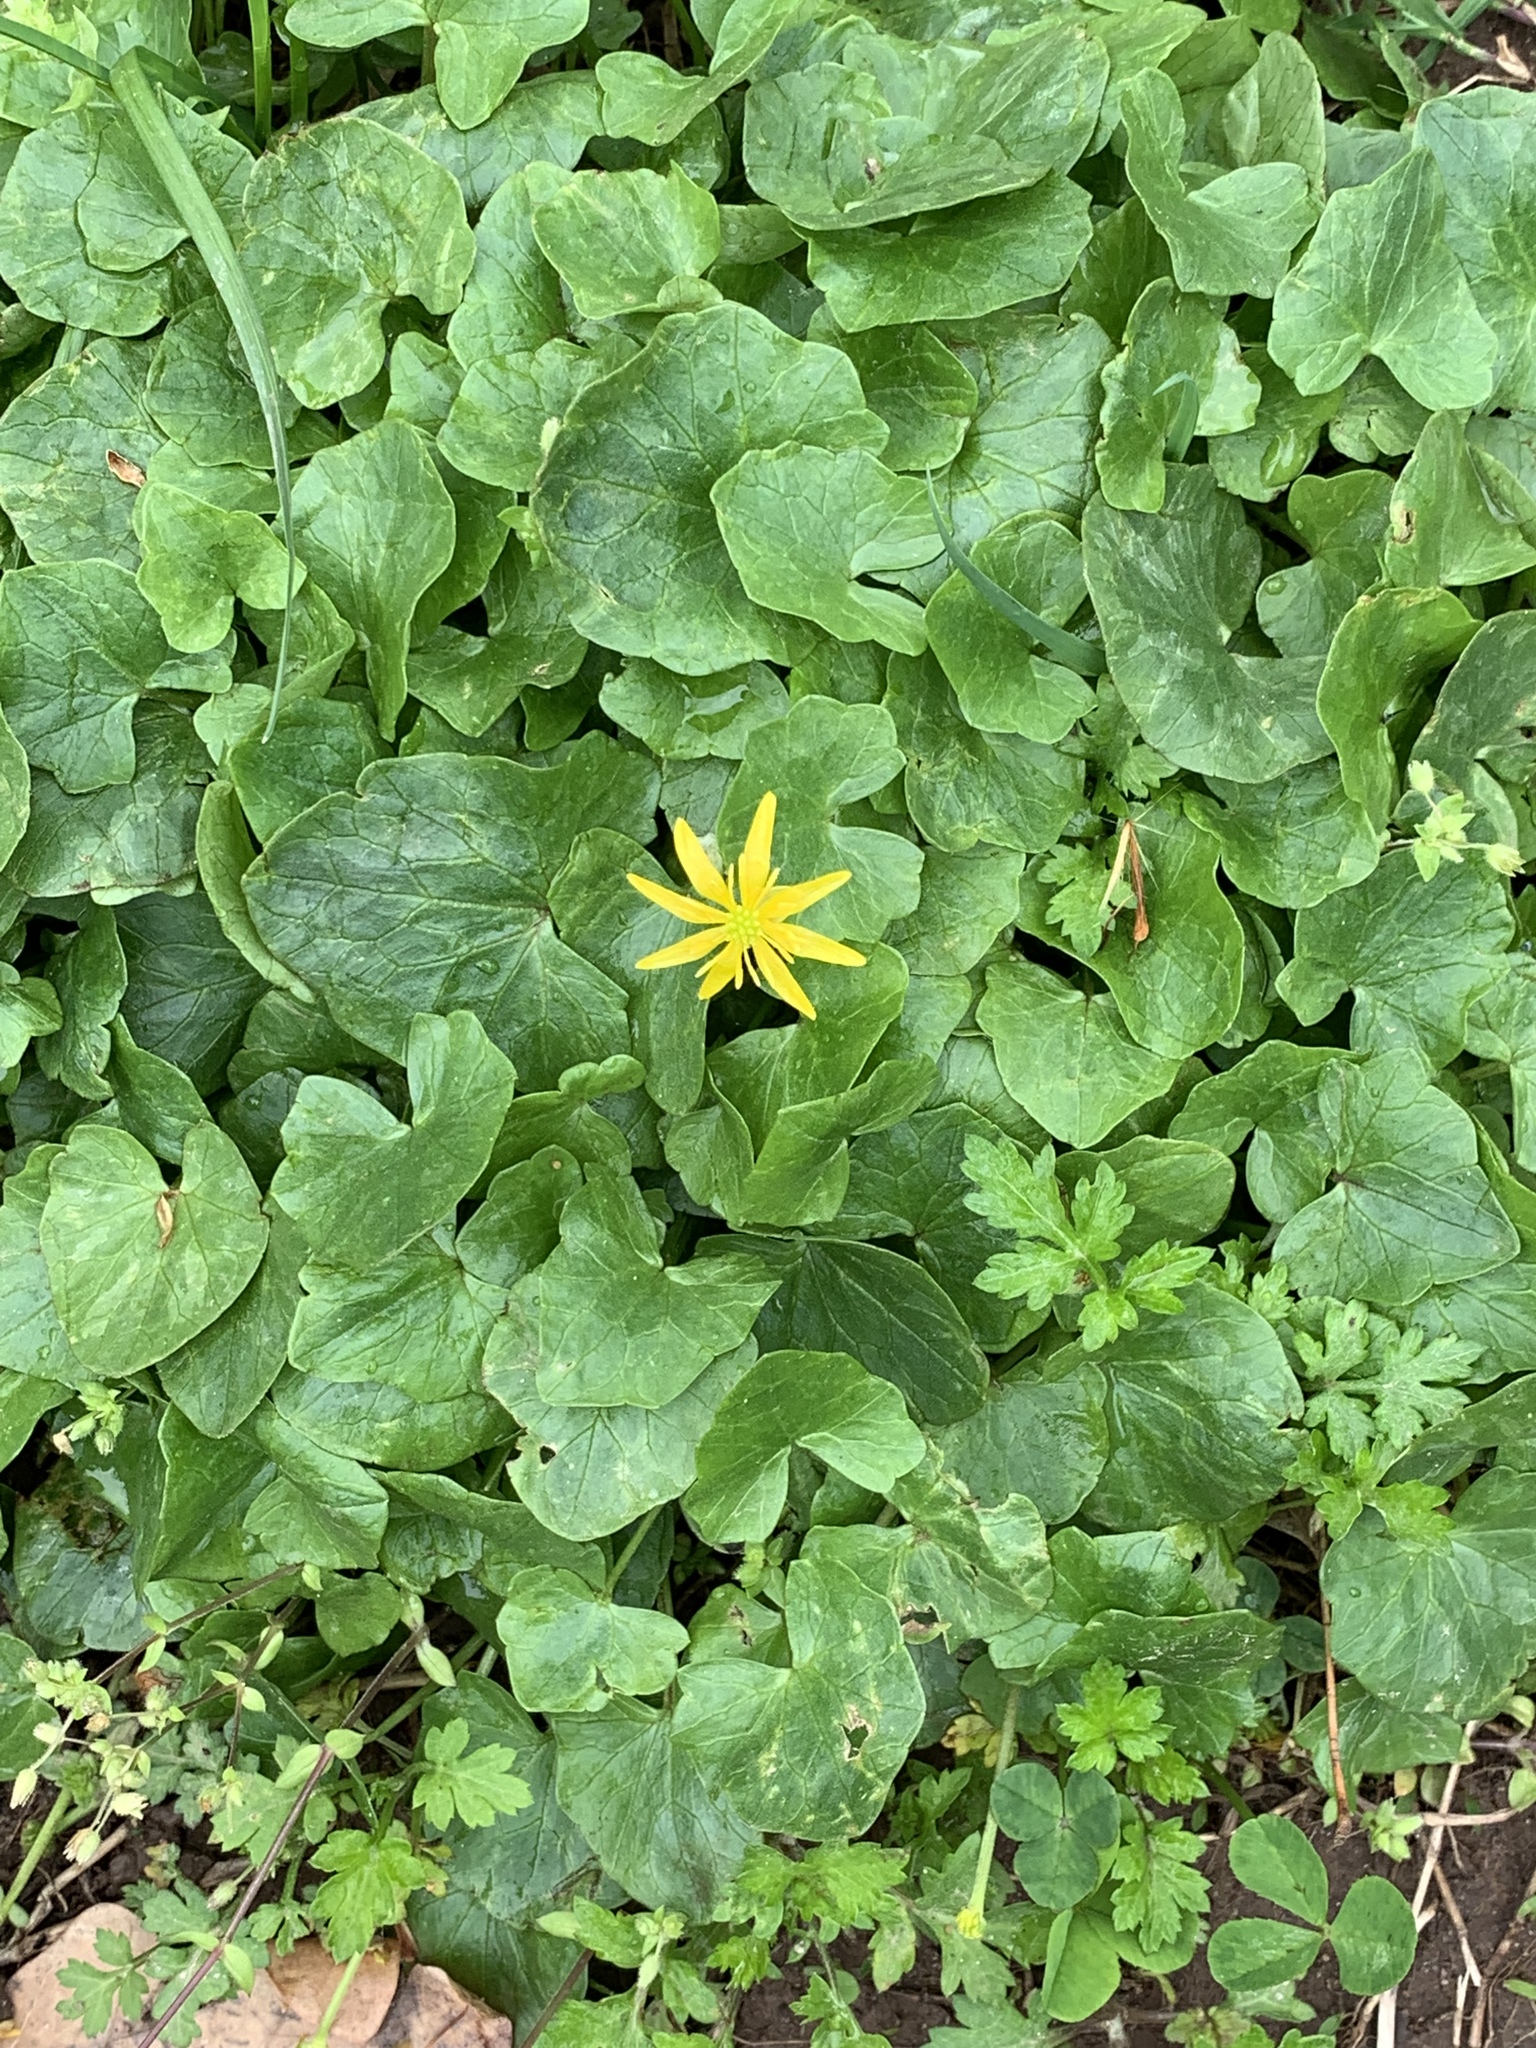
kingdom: Plantae
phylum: Tracheophyta
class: Magnoliopsida
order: Ranunculales
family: Ranunculaceae
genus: Ficaria
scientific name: Ficaria verna
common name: Lesser celandine
